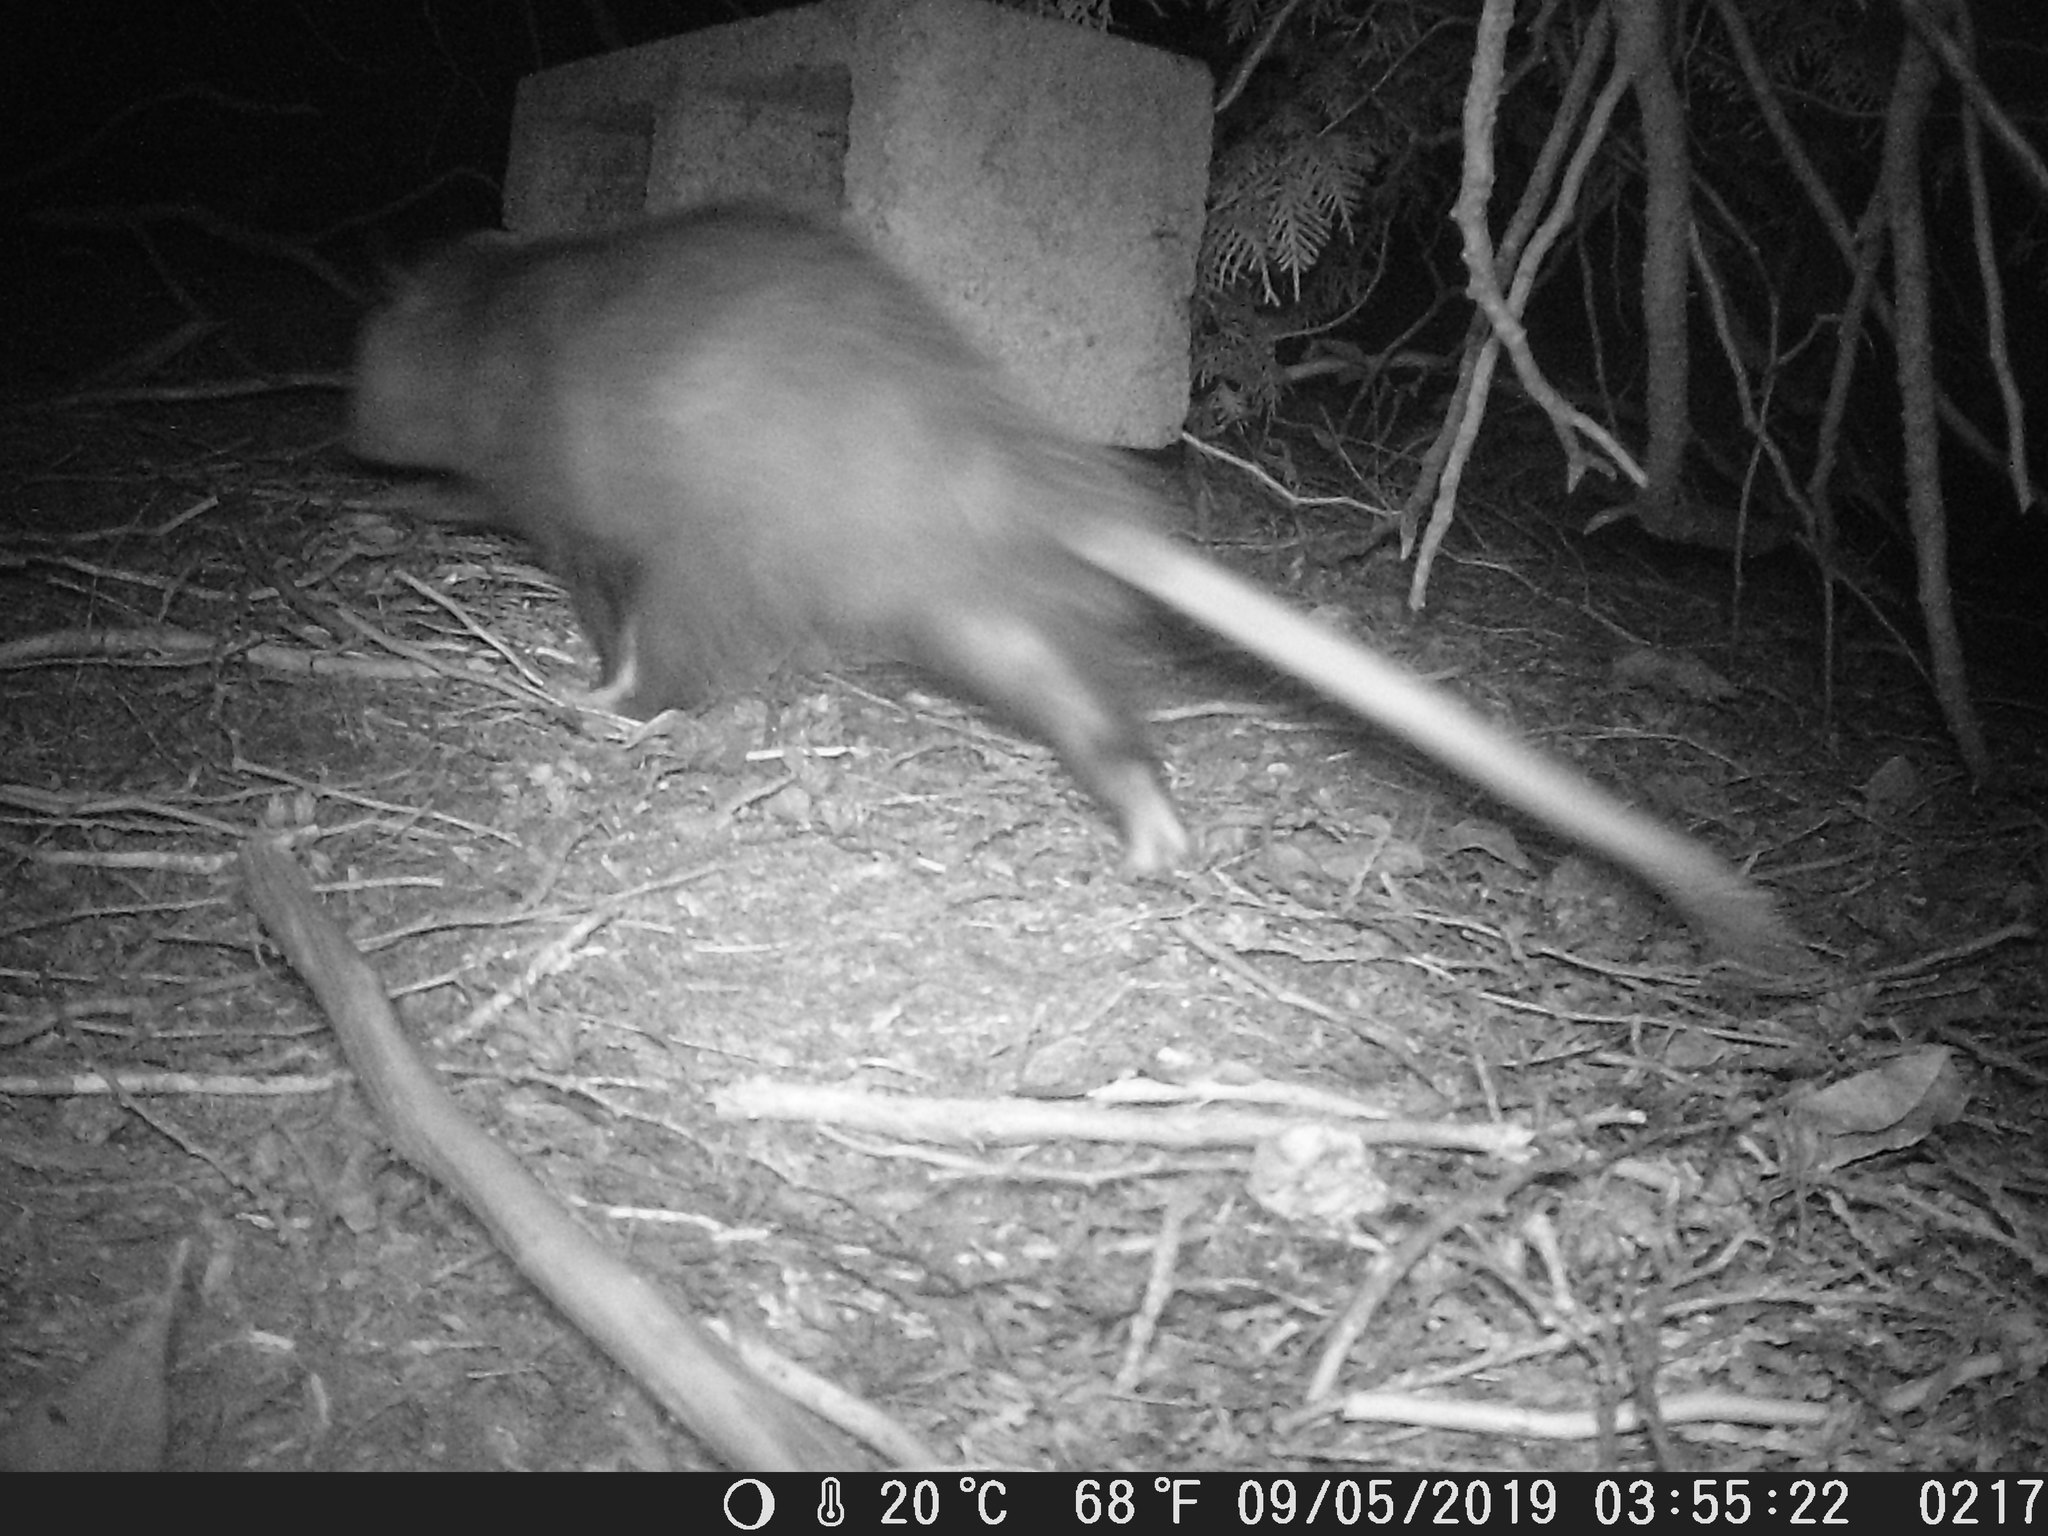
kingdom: Animalia
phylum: Chordata
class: Mammalia
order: Didelphimorphia
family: Didelphidae
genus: Didelphis
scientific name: Didelphis virginiana
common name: Virginia opossum
